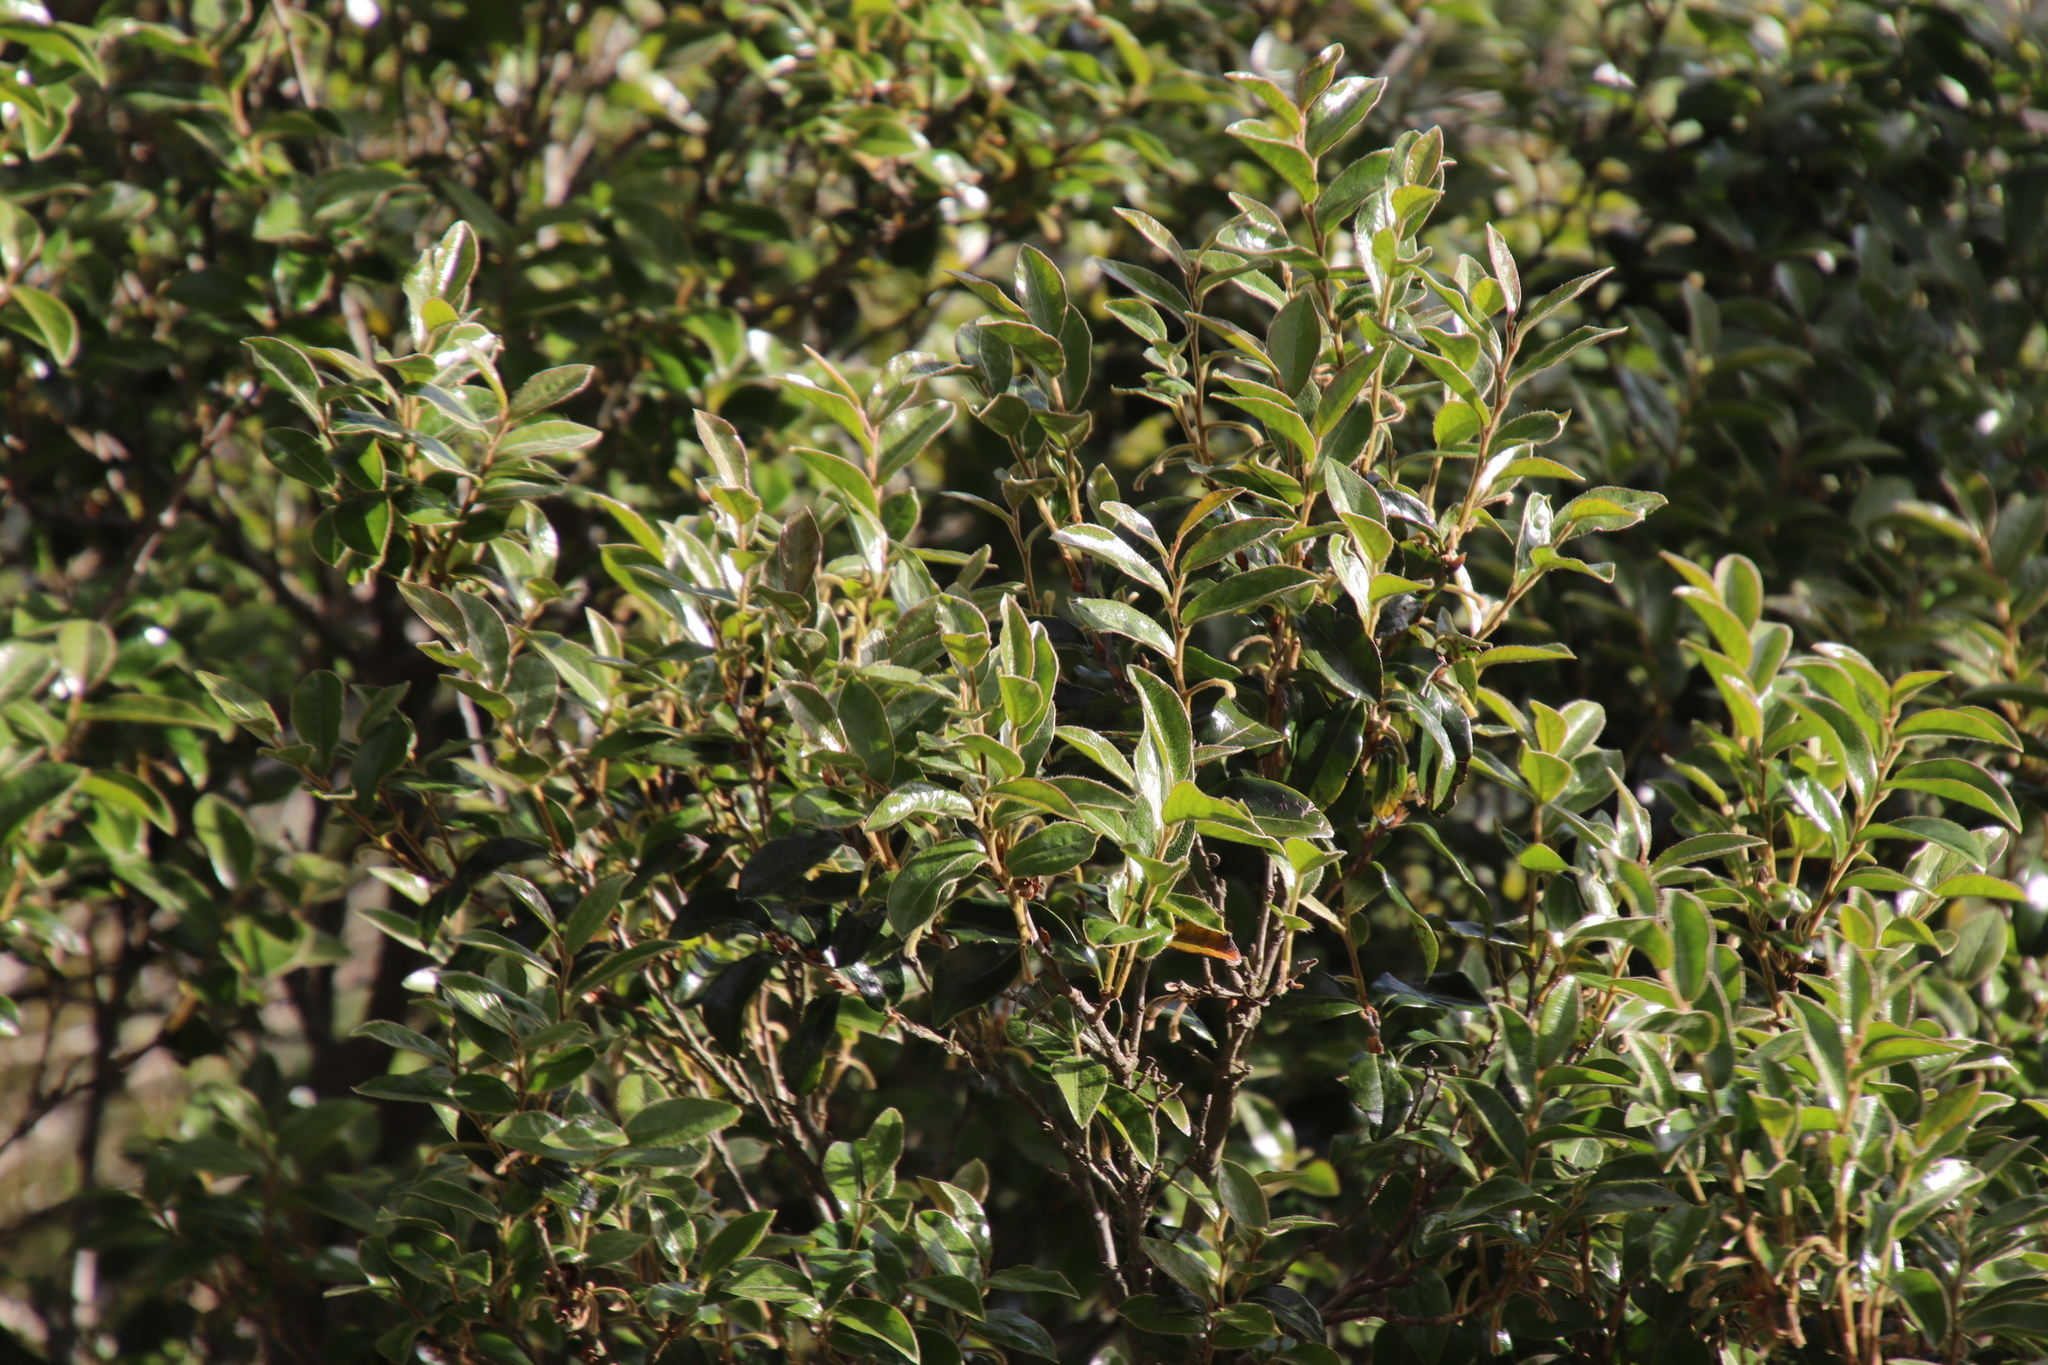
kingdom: Plantae
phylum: Tracheophyta
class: Magnoliopsida
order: Ericales
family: Ebenaceae
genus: Diospyros
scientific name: Diospyros whyteana
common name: Bladder-nut
